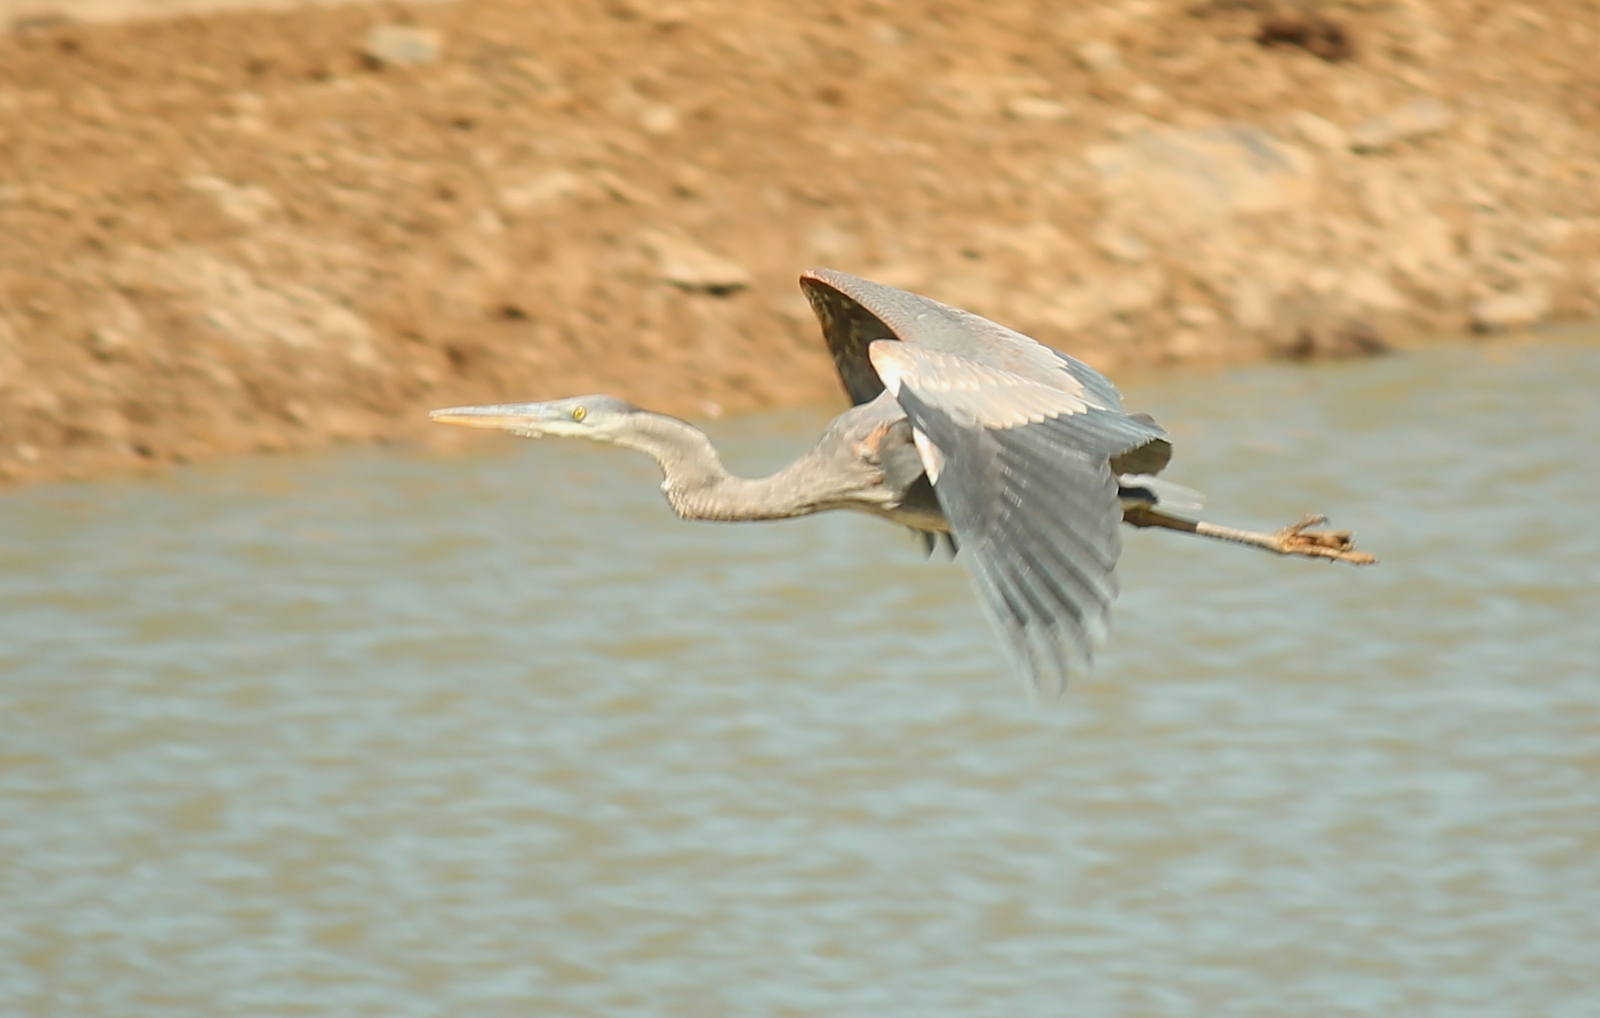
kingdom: Animalia
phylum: Chordata
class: Aves
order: Pelecaniformes
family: Ardeidae
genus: Ardea
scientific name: Ardea herodias
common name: Great blue heron
